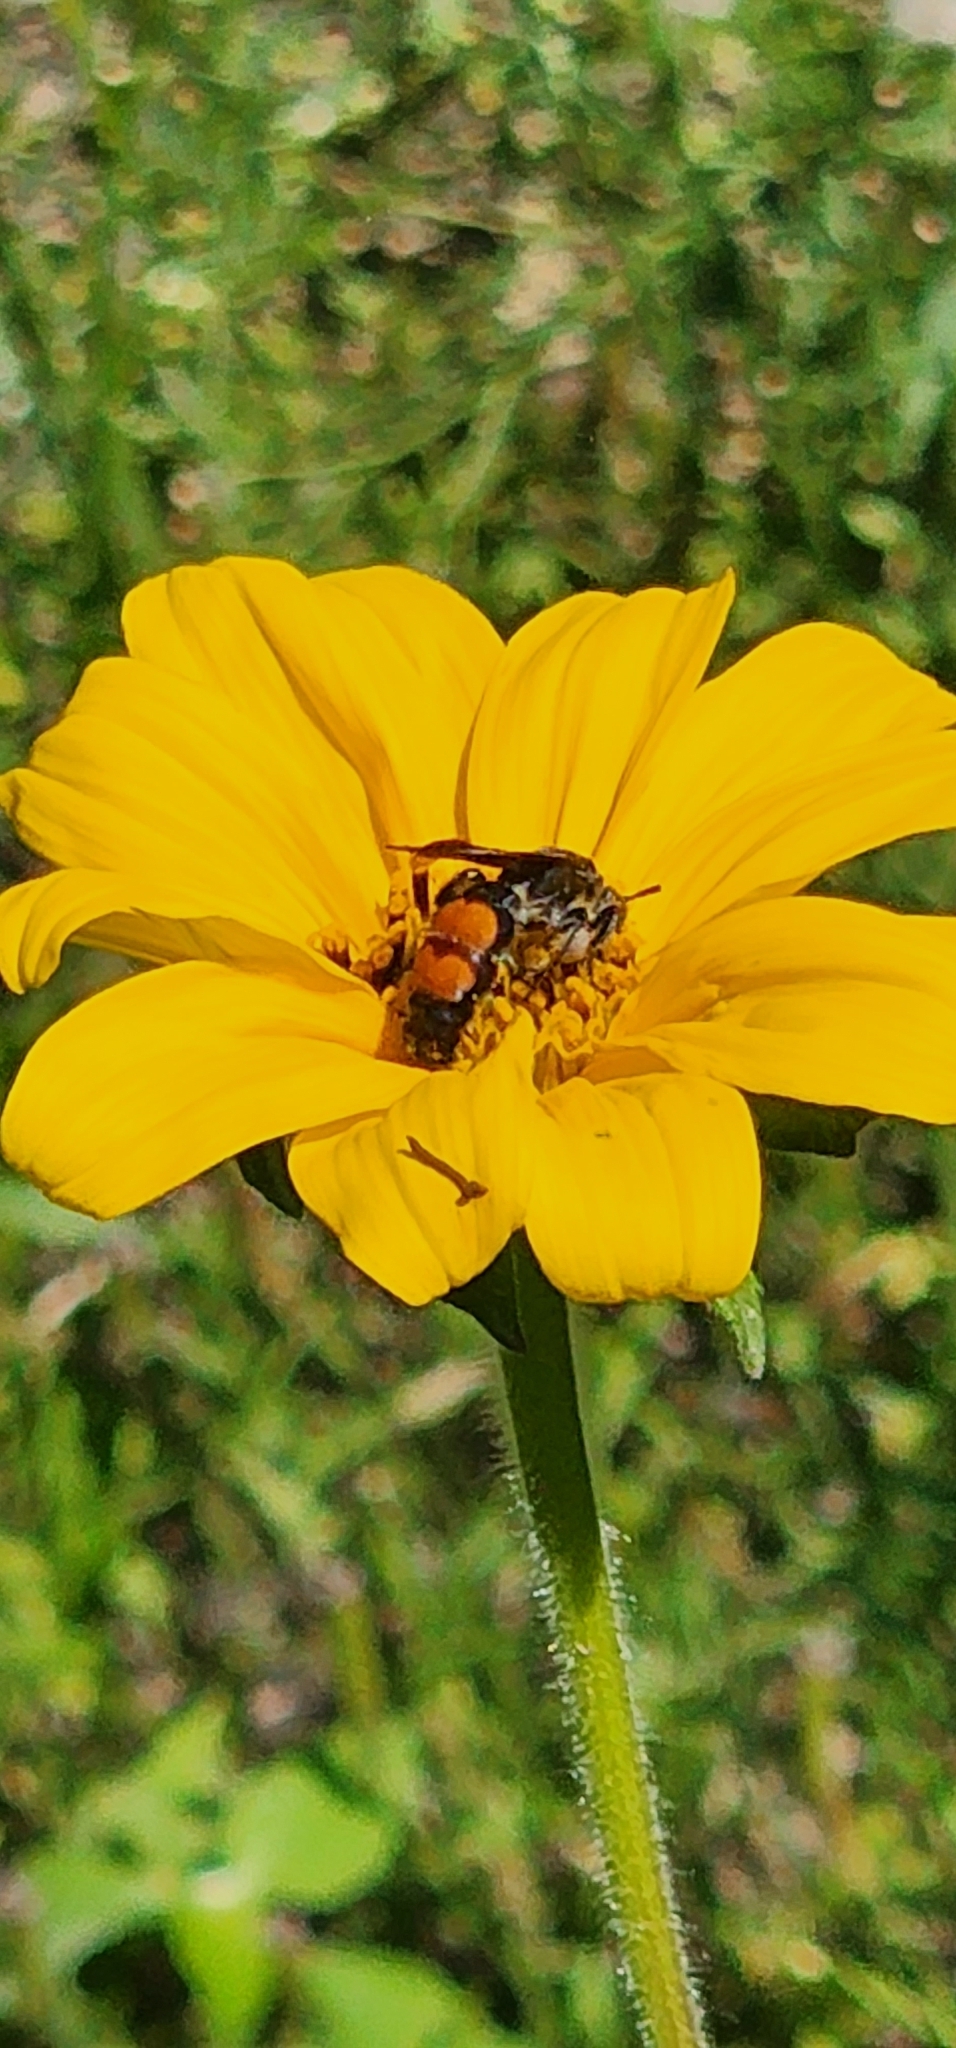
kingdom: Animalia
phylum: Arthropoda
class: Insecta
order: Hymenoptera
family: Scoliidae
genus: Dielis
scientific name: Dielis dorsata
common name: Scoliid wasp
